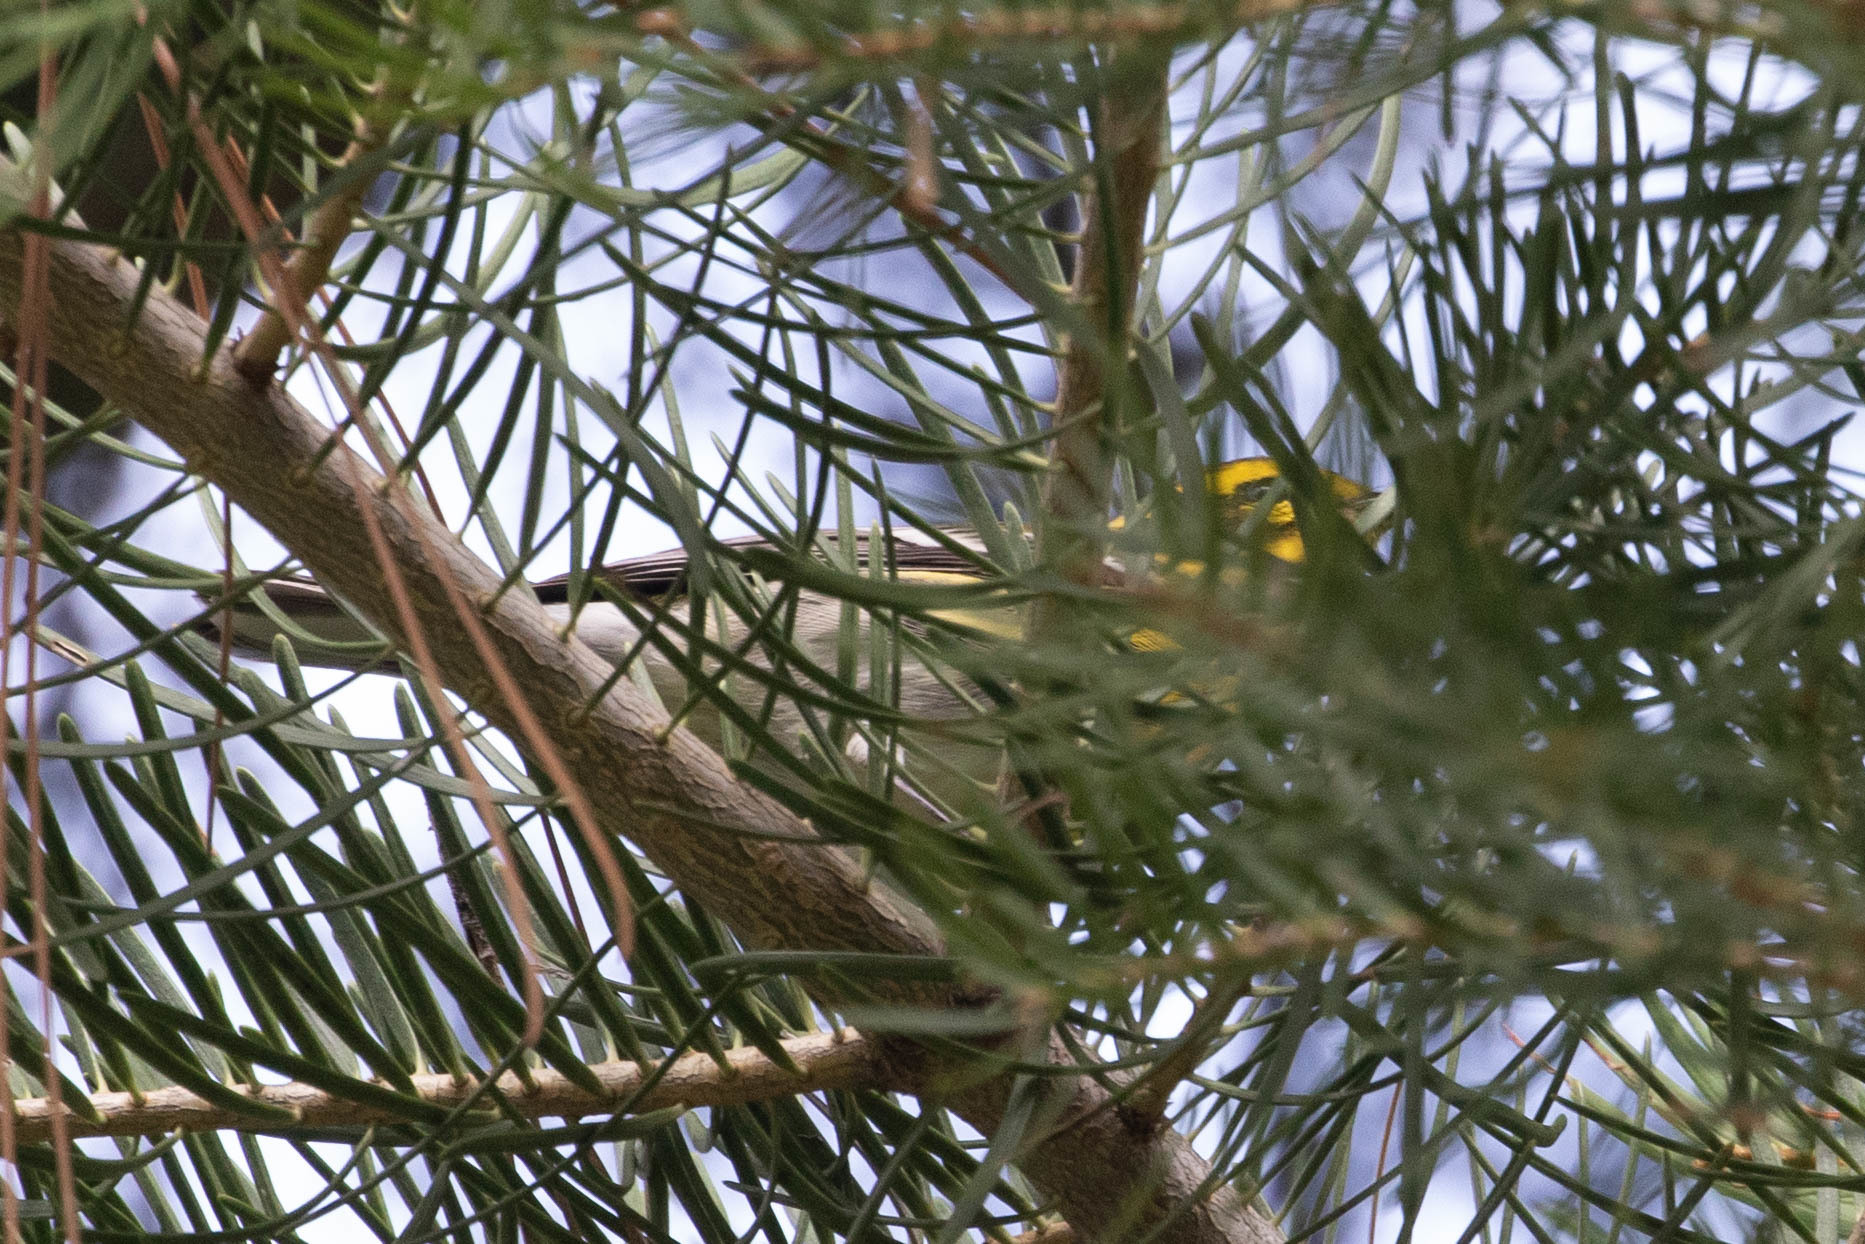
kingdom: Animalia
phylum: Chordata
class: Aves
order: Passeriformes
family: Parulidae
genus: Setophaga
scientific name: Setophaga townsendi
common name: Townsend's warbler
